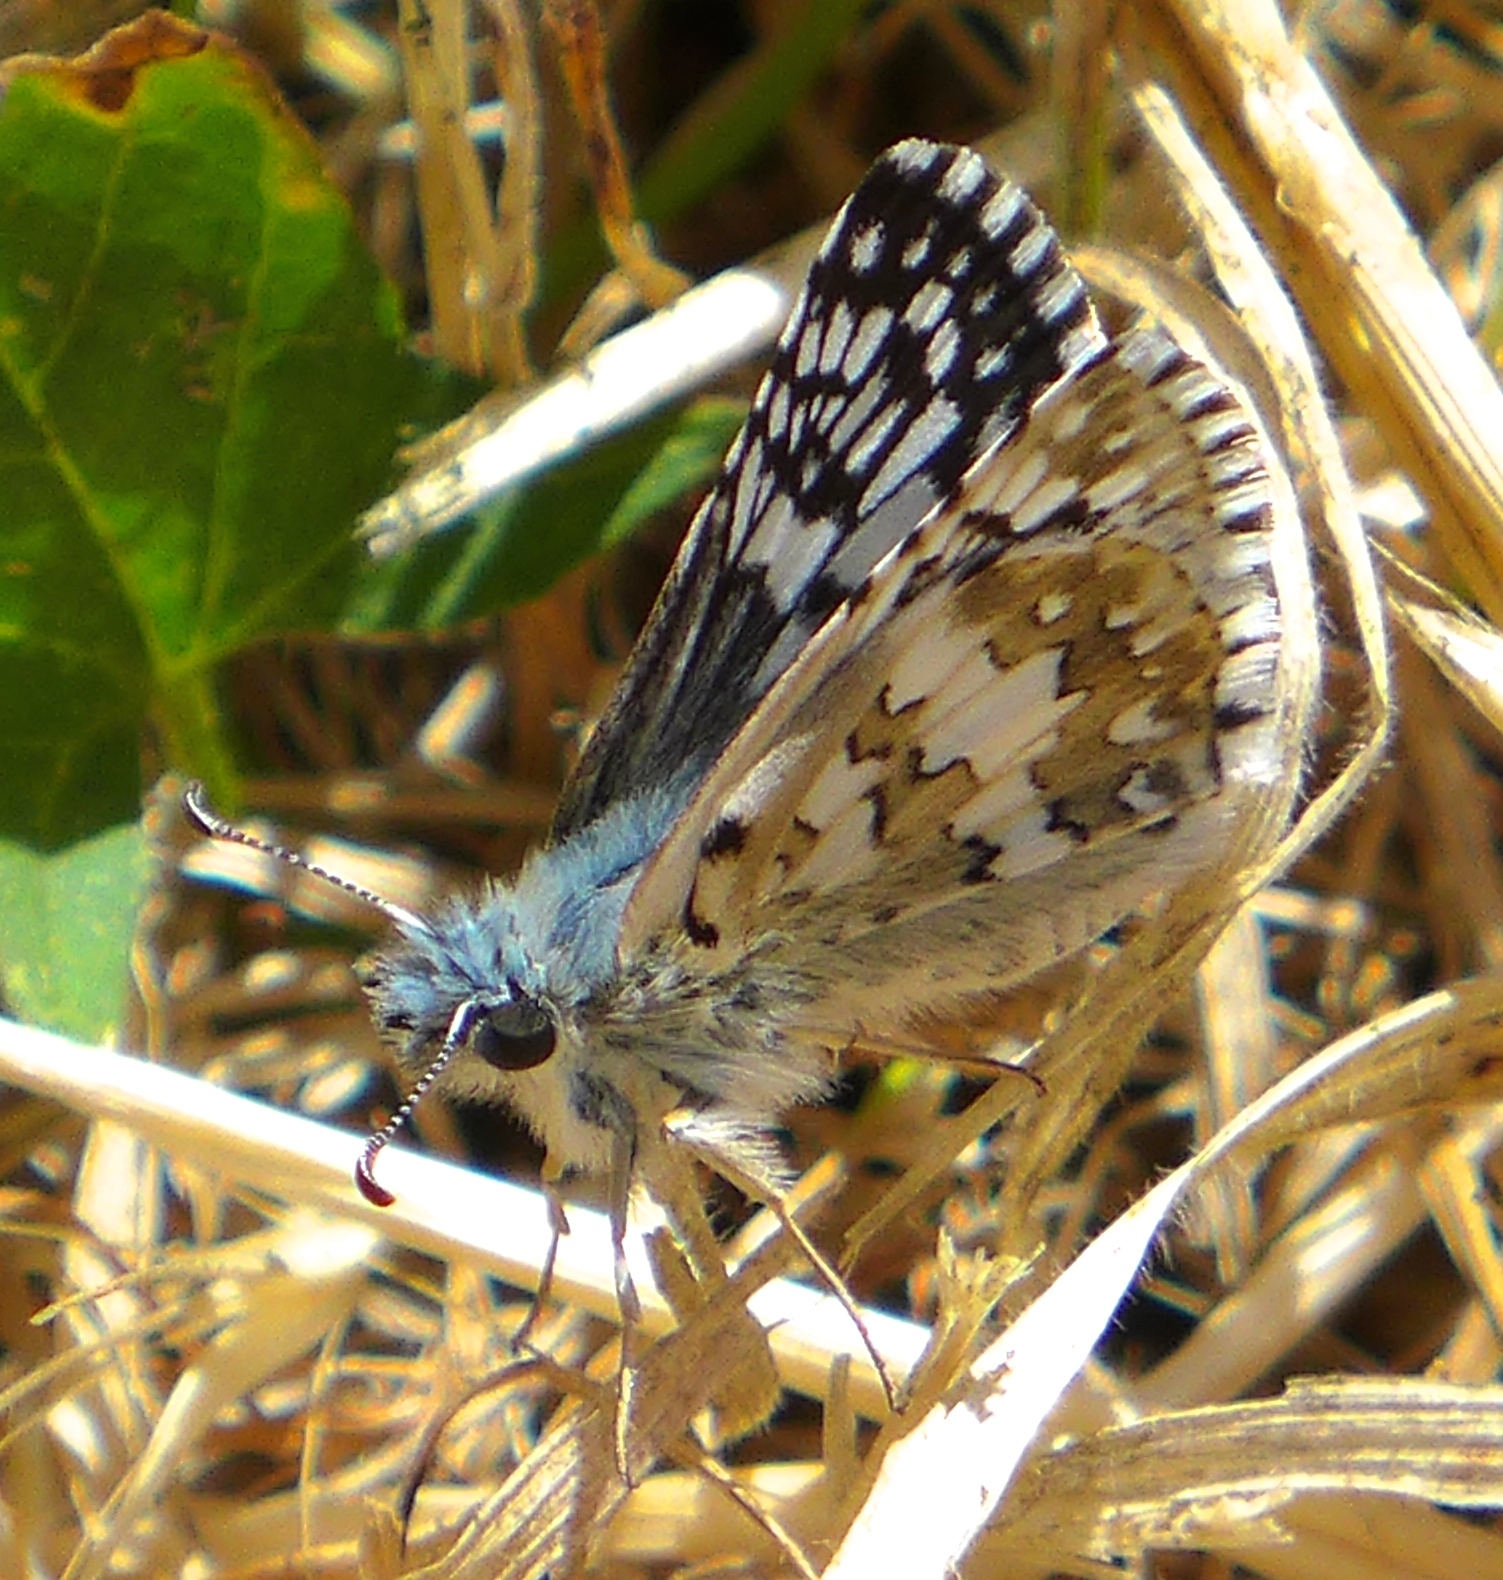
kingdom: Animalia
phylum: Arthropoda
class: Insecta
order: Lepidoptera
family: Hesperiidae
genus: Burnsius
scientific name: Burnsius communis
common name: Common checkered-skipper
